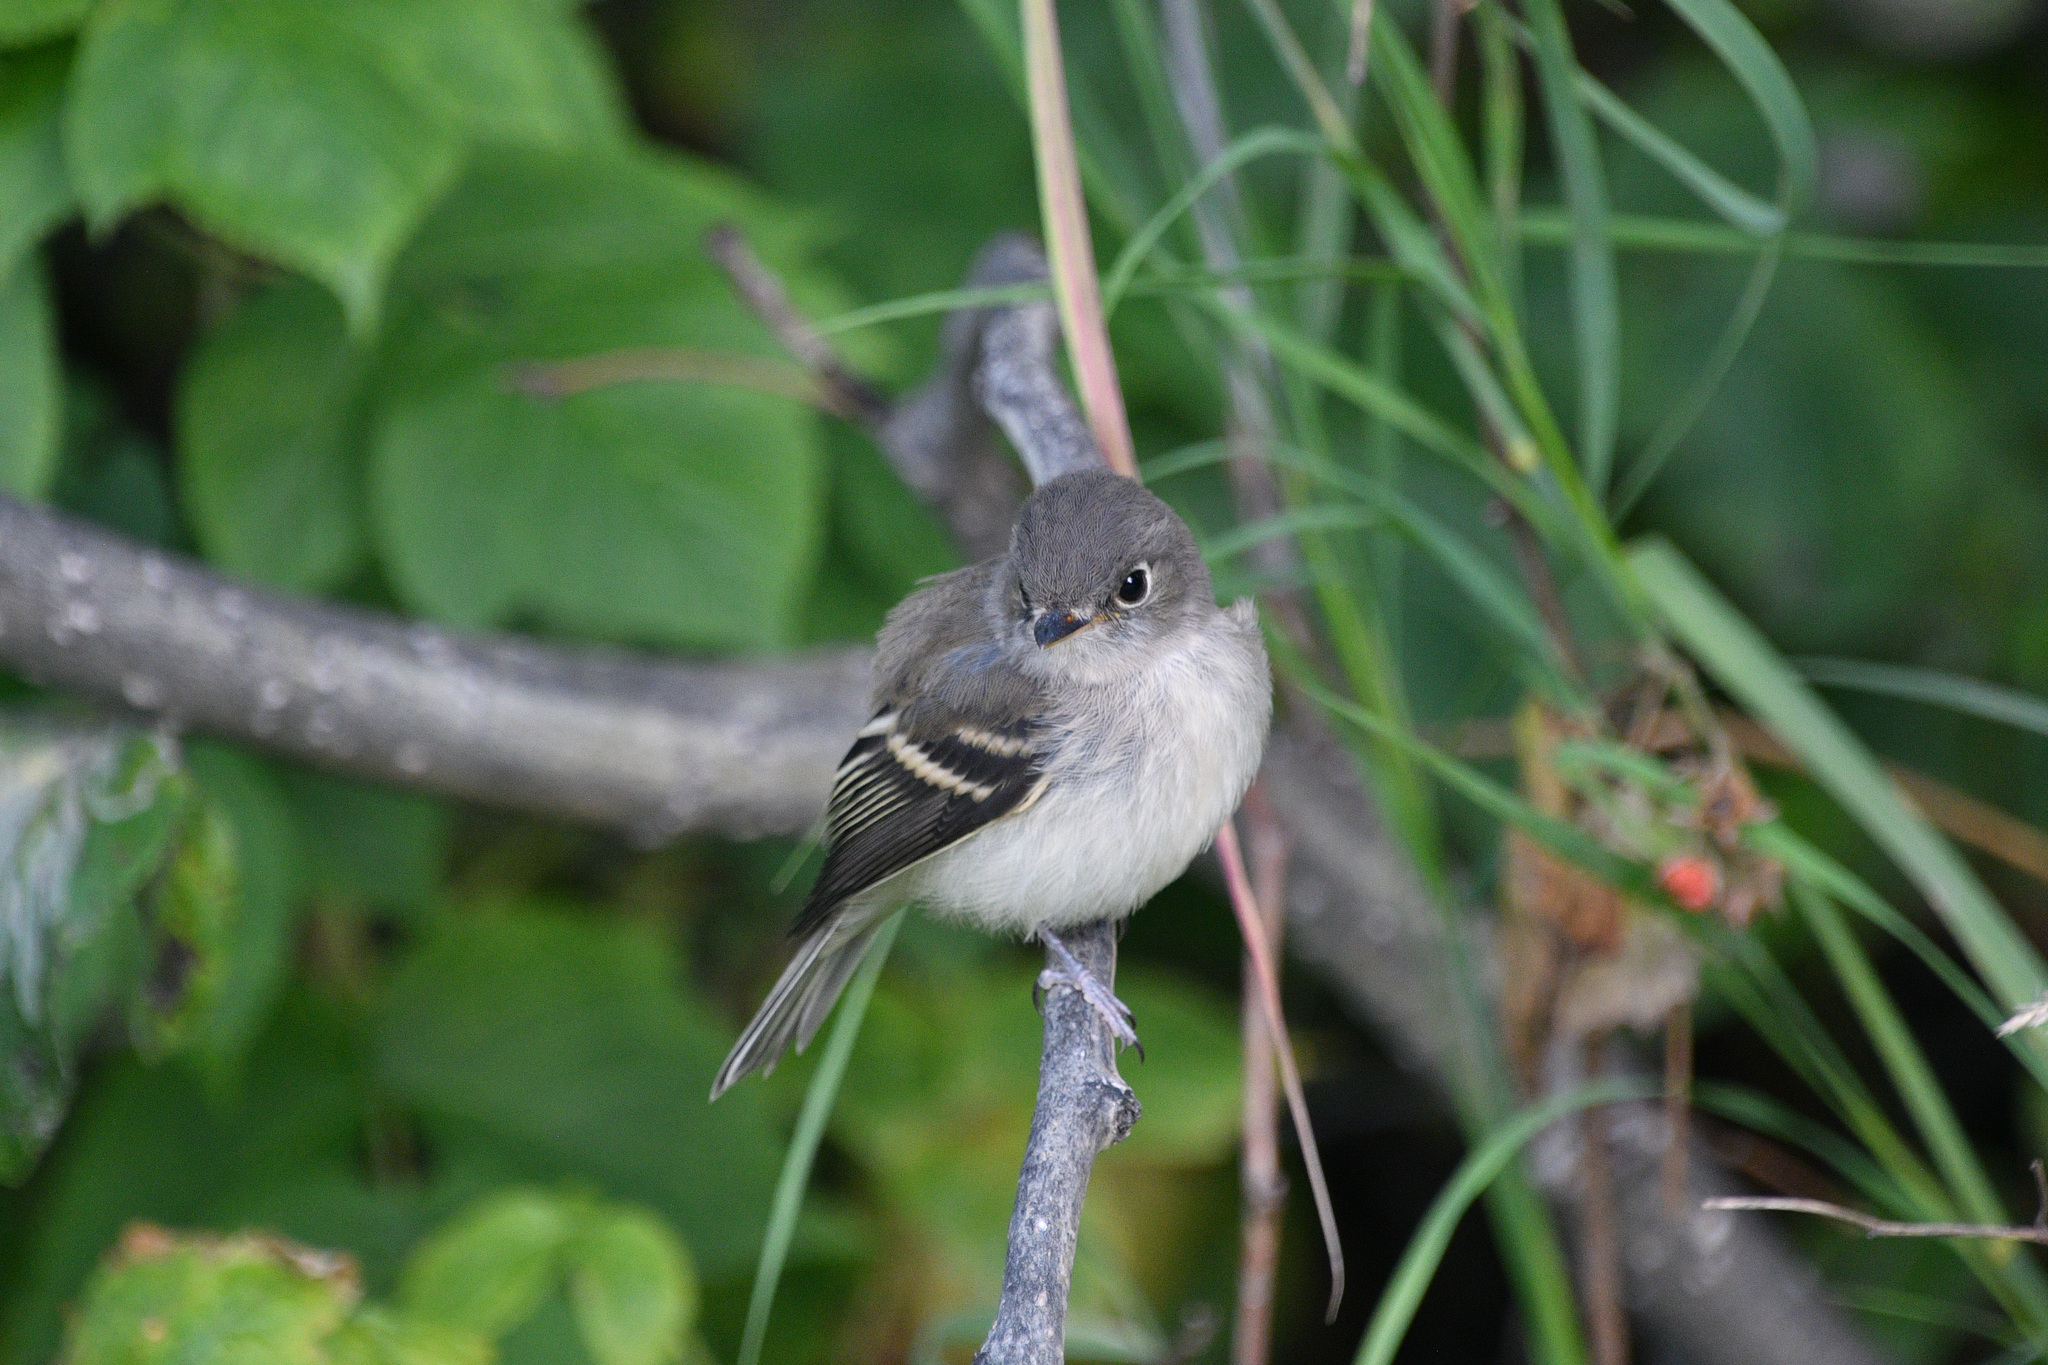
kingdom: Animalia
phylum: Chordata
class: Aves
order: Passeriformes
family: Tyrannidae
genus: Empidonax
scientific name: Empidonax minimus
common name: Least flycatcher
